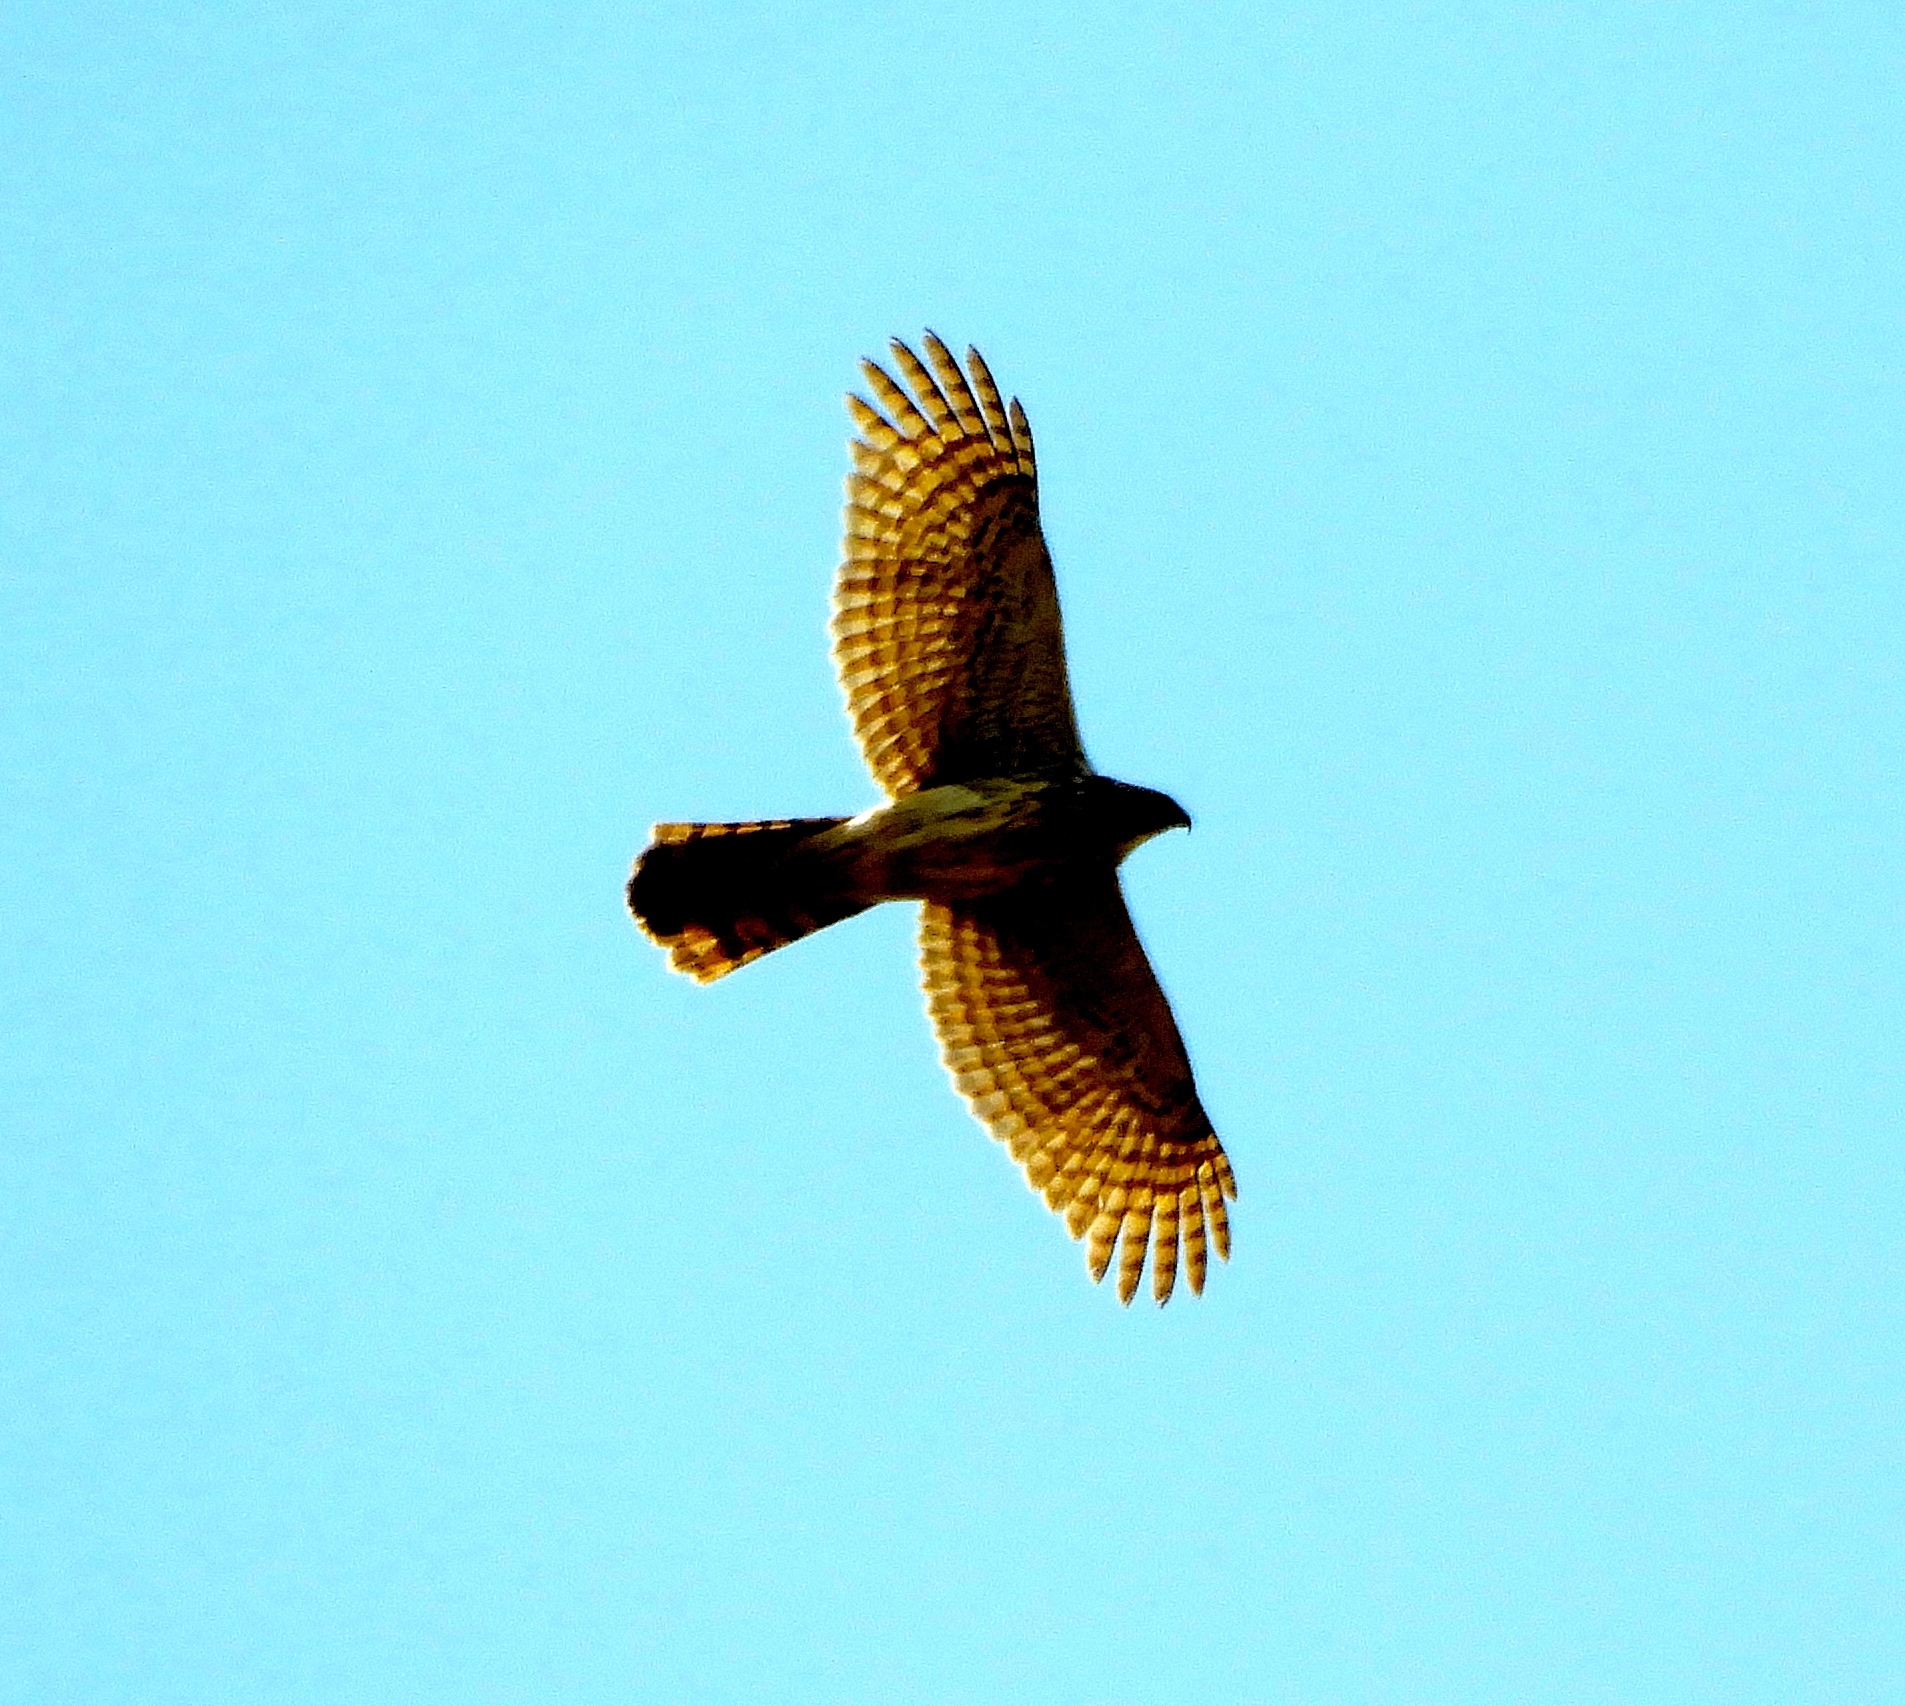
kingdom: Animalia
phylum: Chordata
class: Aves
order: Accipitriformes
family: Accipitridae
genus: Accipiter
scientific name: Accipiter cooperii
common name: Cooper's hawk
